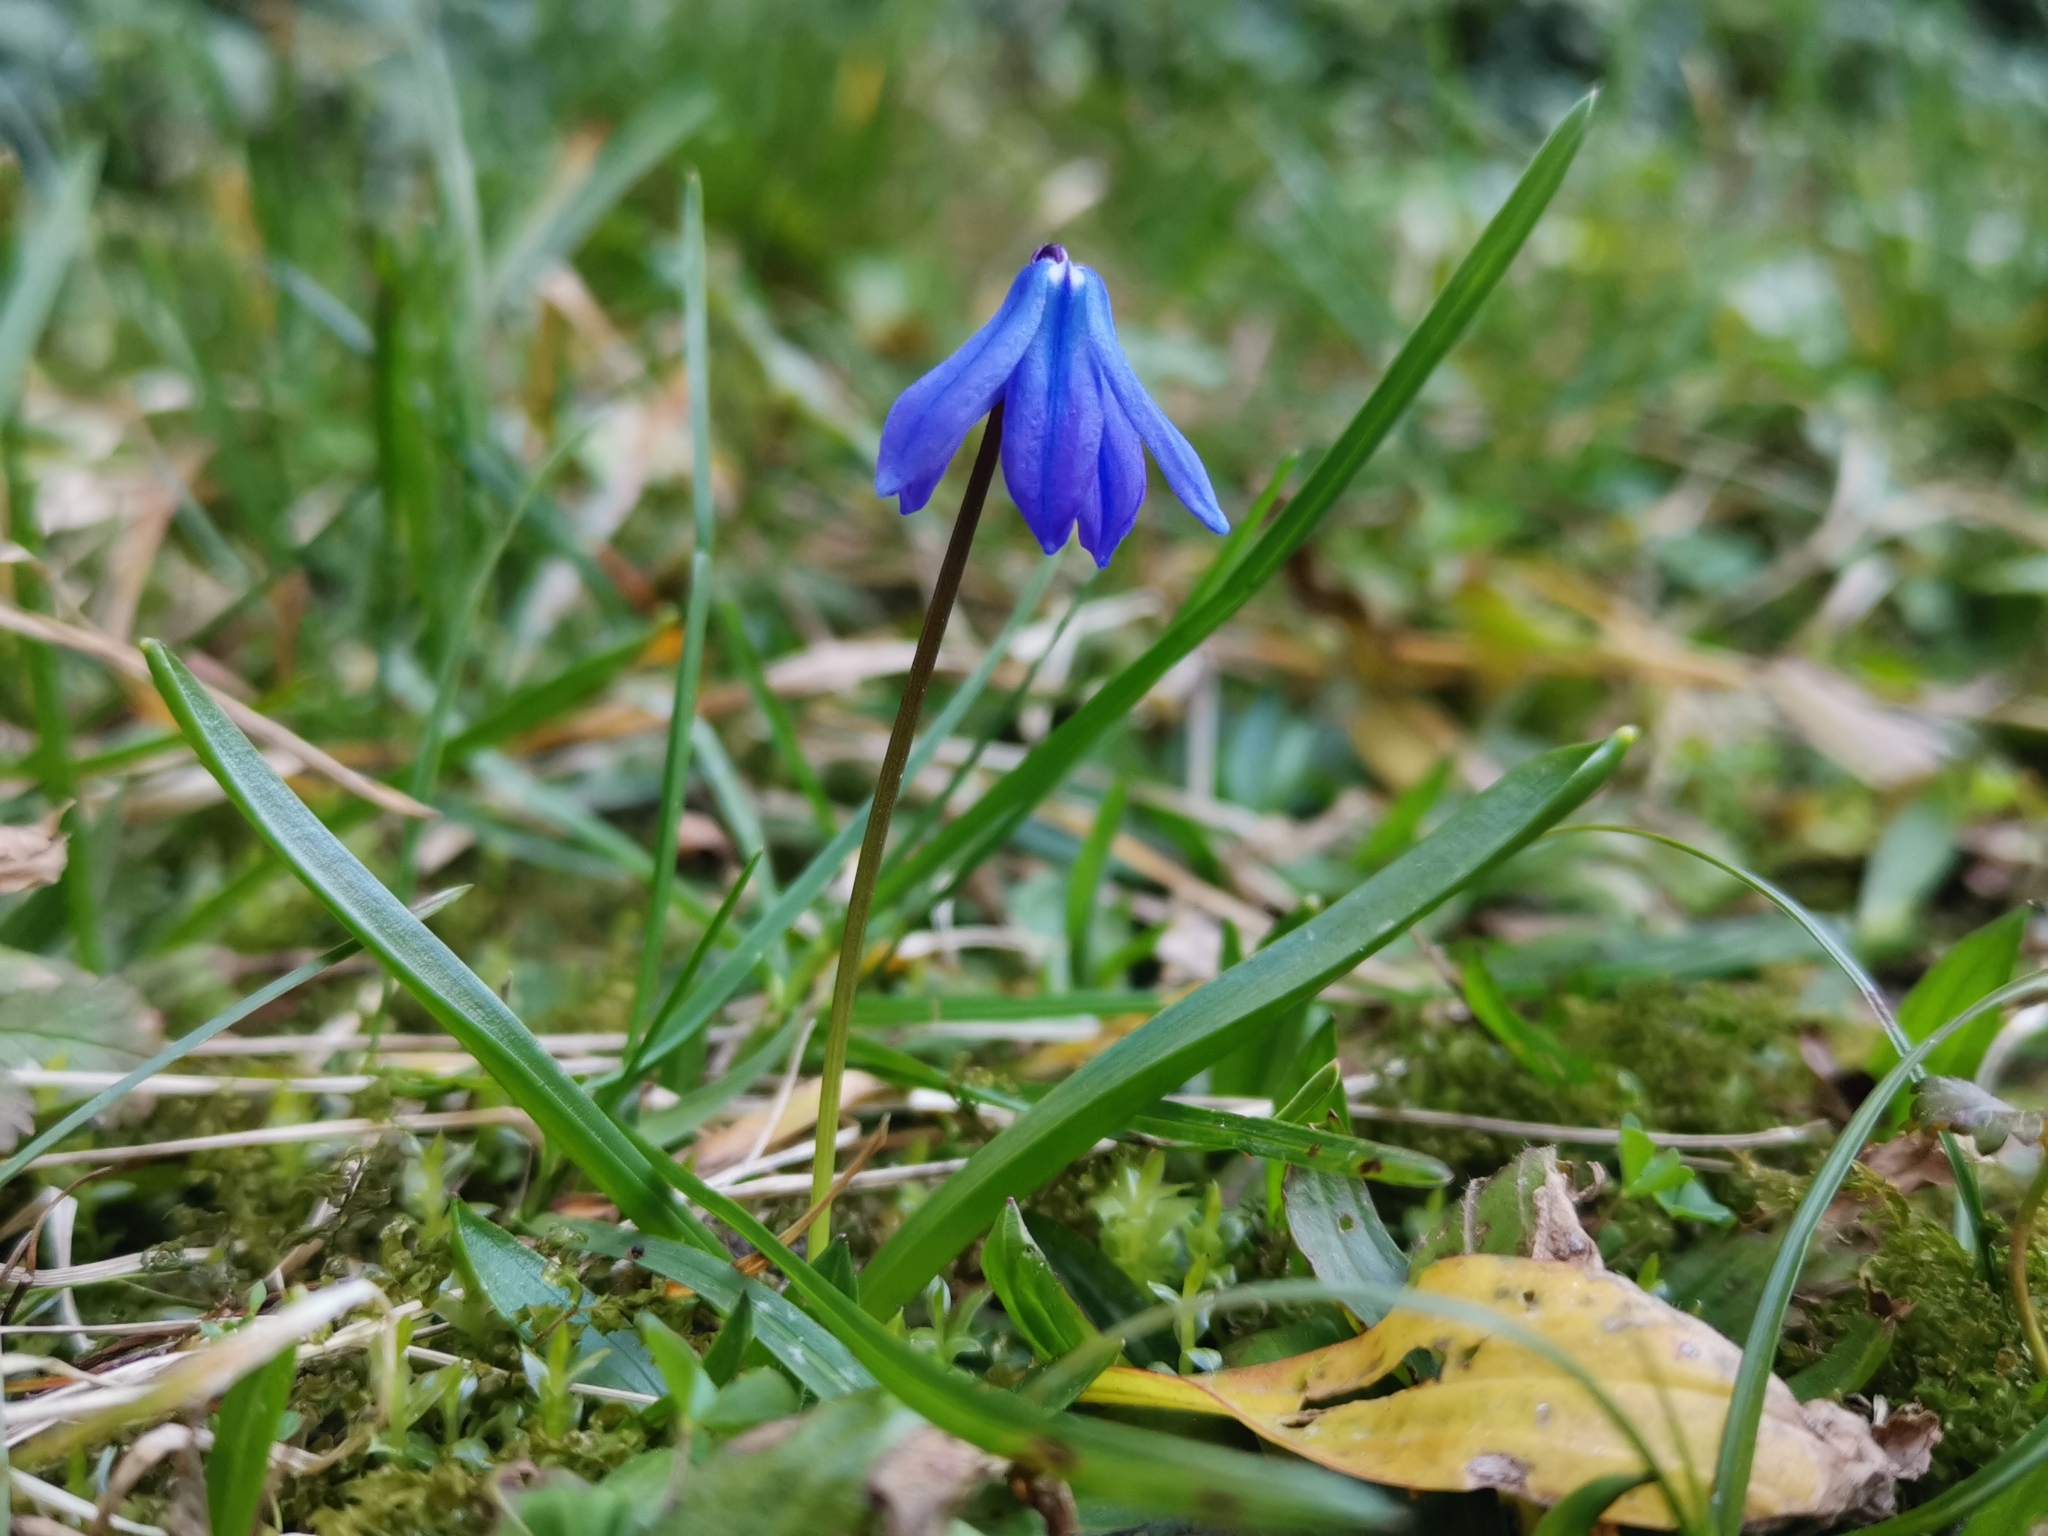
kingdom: Plantae
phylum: Tracheophyta
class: Liliopsida
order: Asparagales
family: Asparagaceae
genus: Scilla
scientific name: Scilla siberica
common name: Siberian squill
